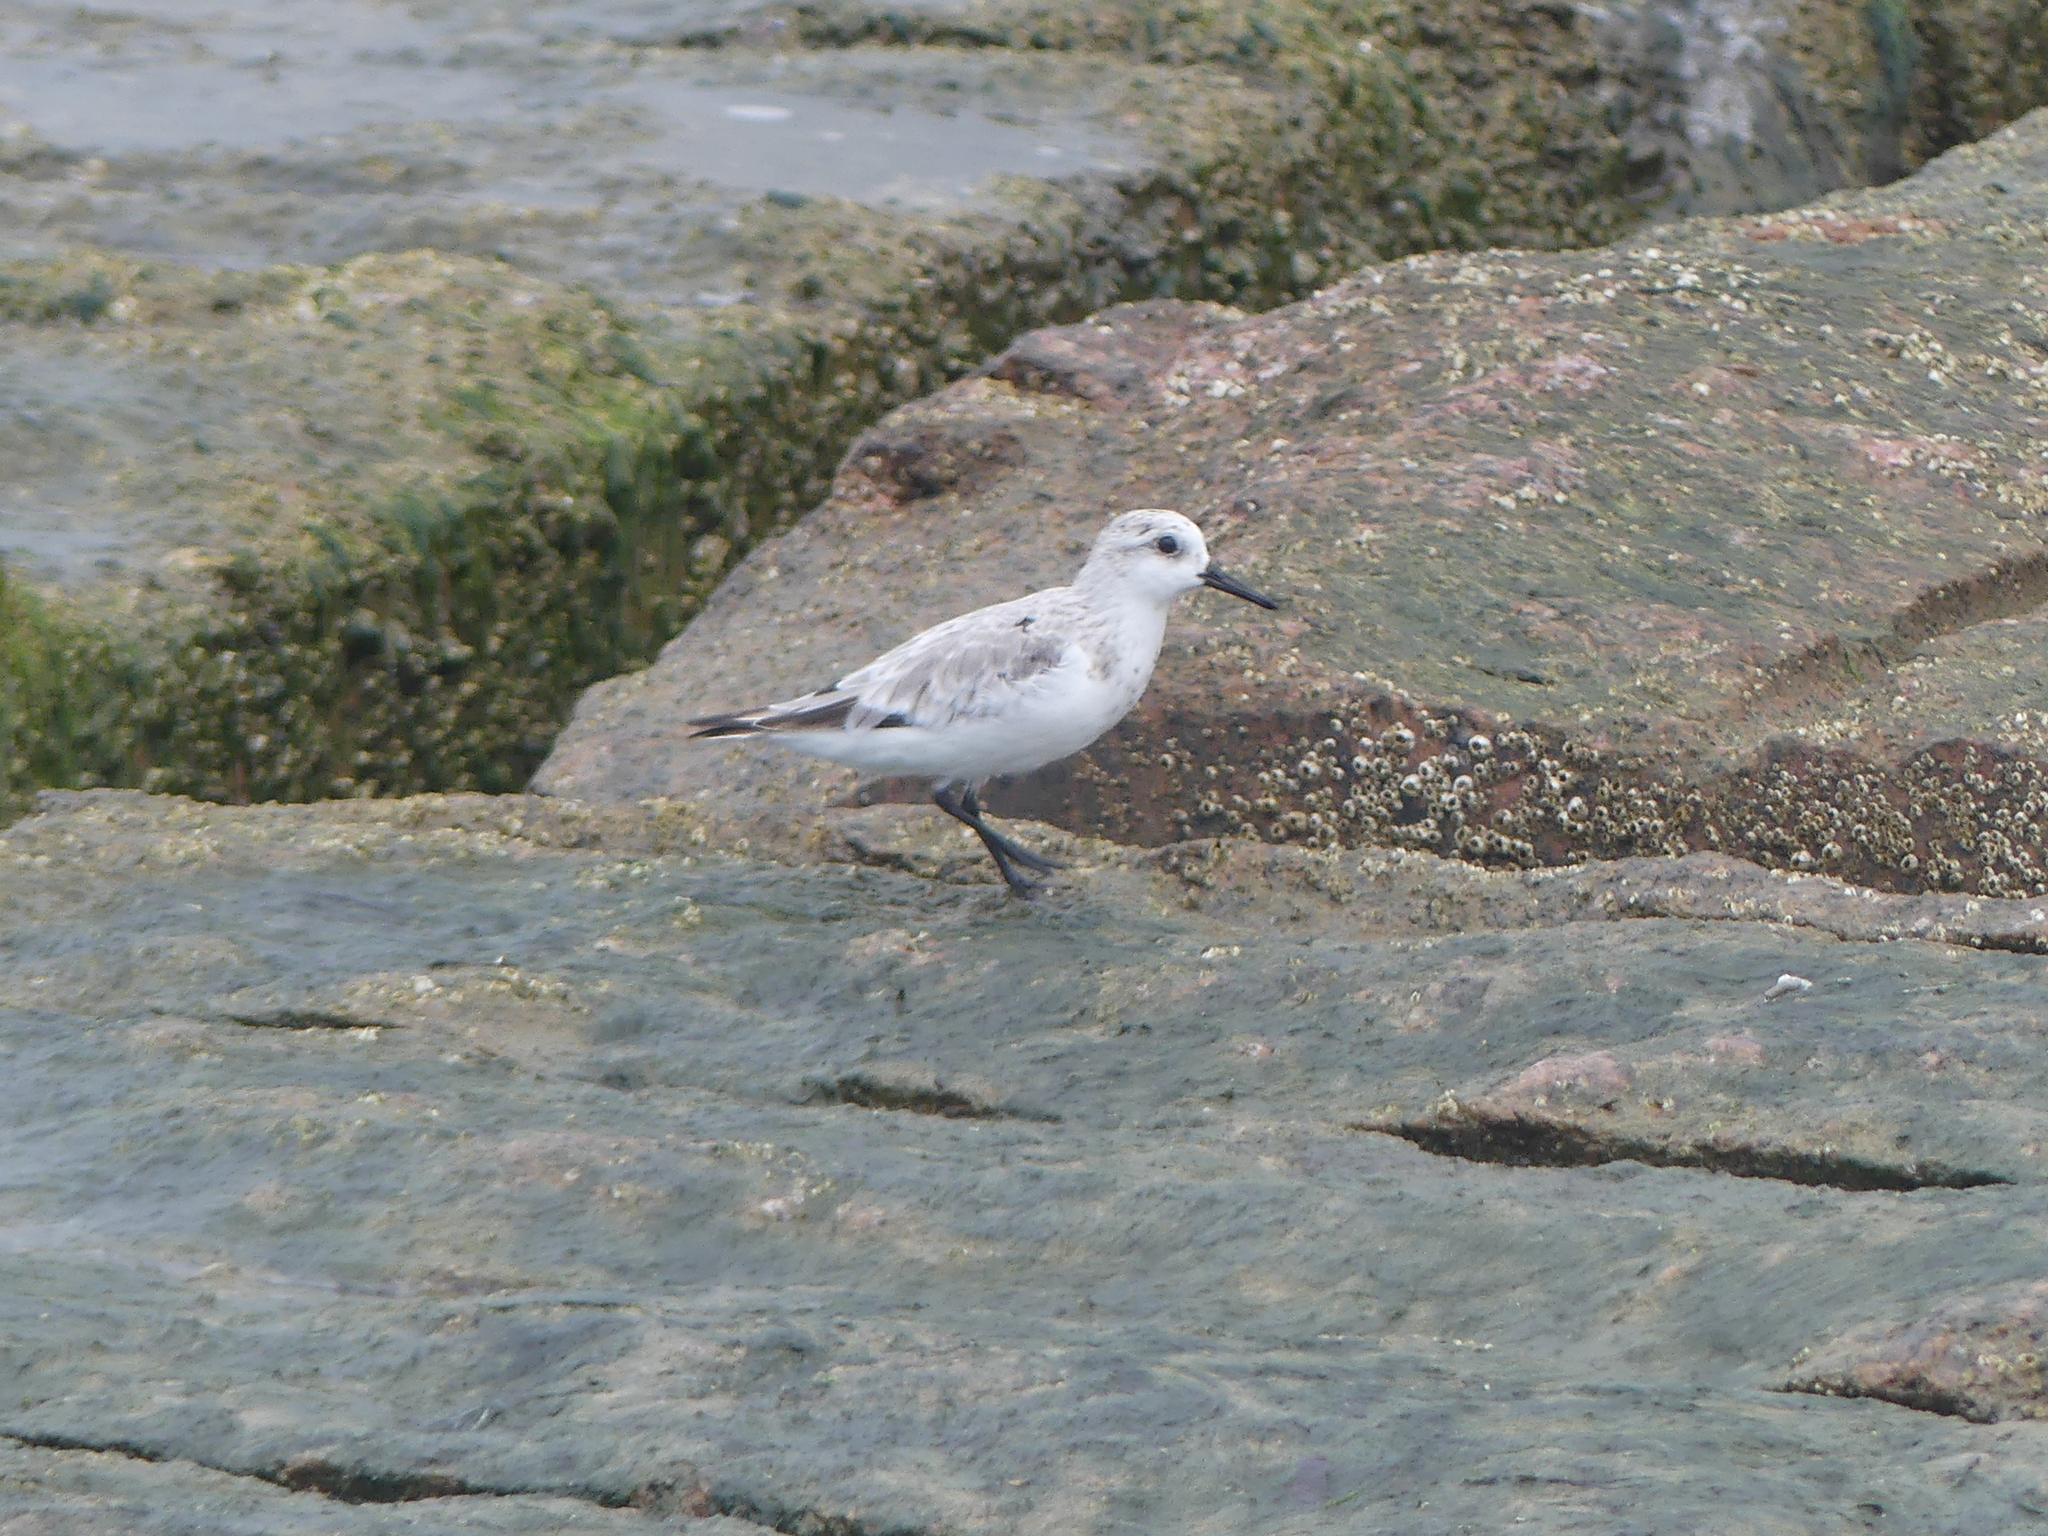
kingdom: Animalia
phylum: Chordata
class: Aves
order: Charadriiformes
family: Scolopacidae
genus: Calidris
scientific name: Calidris alba
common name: Sanderling
